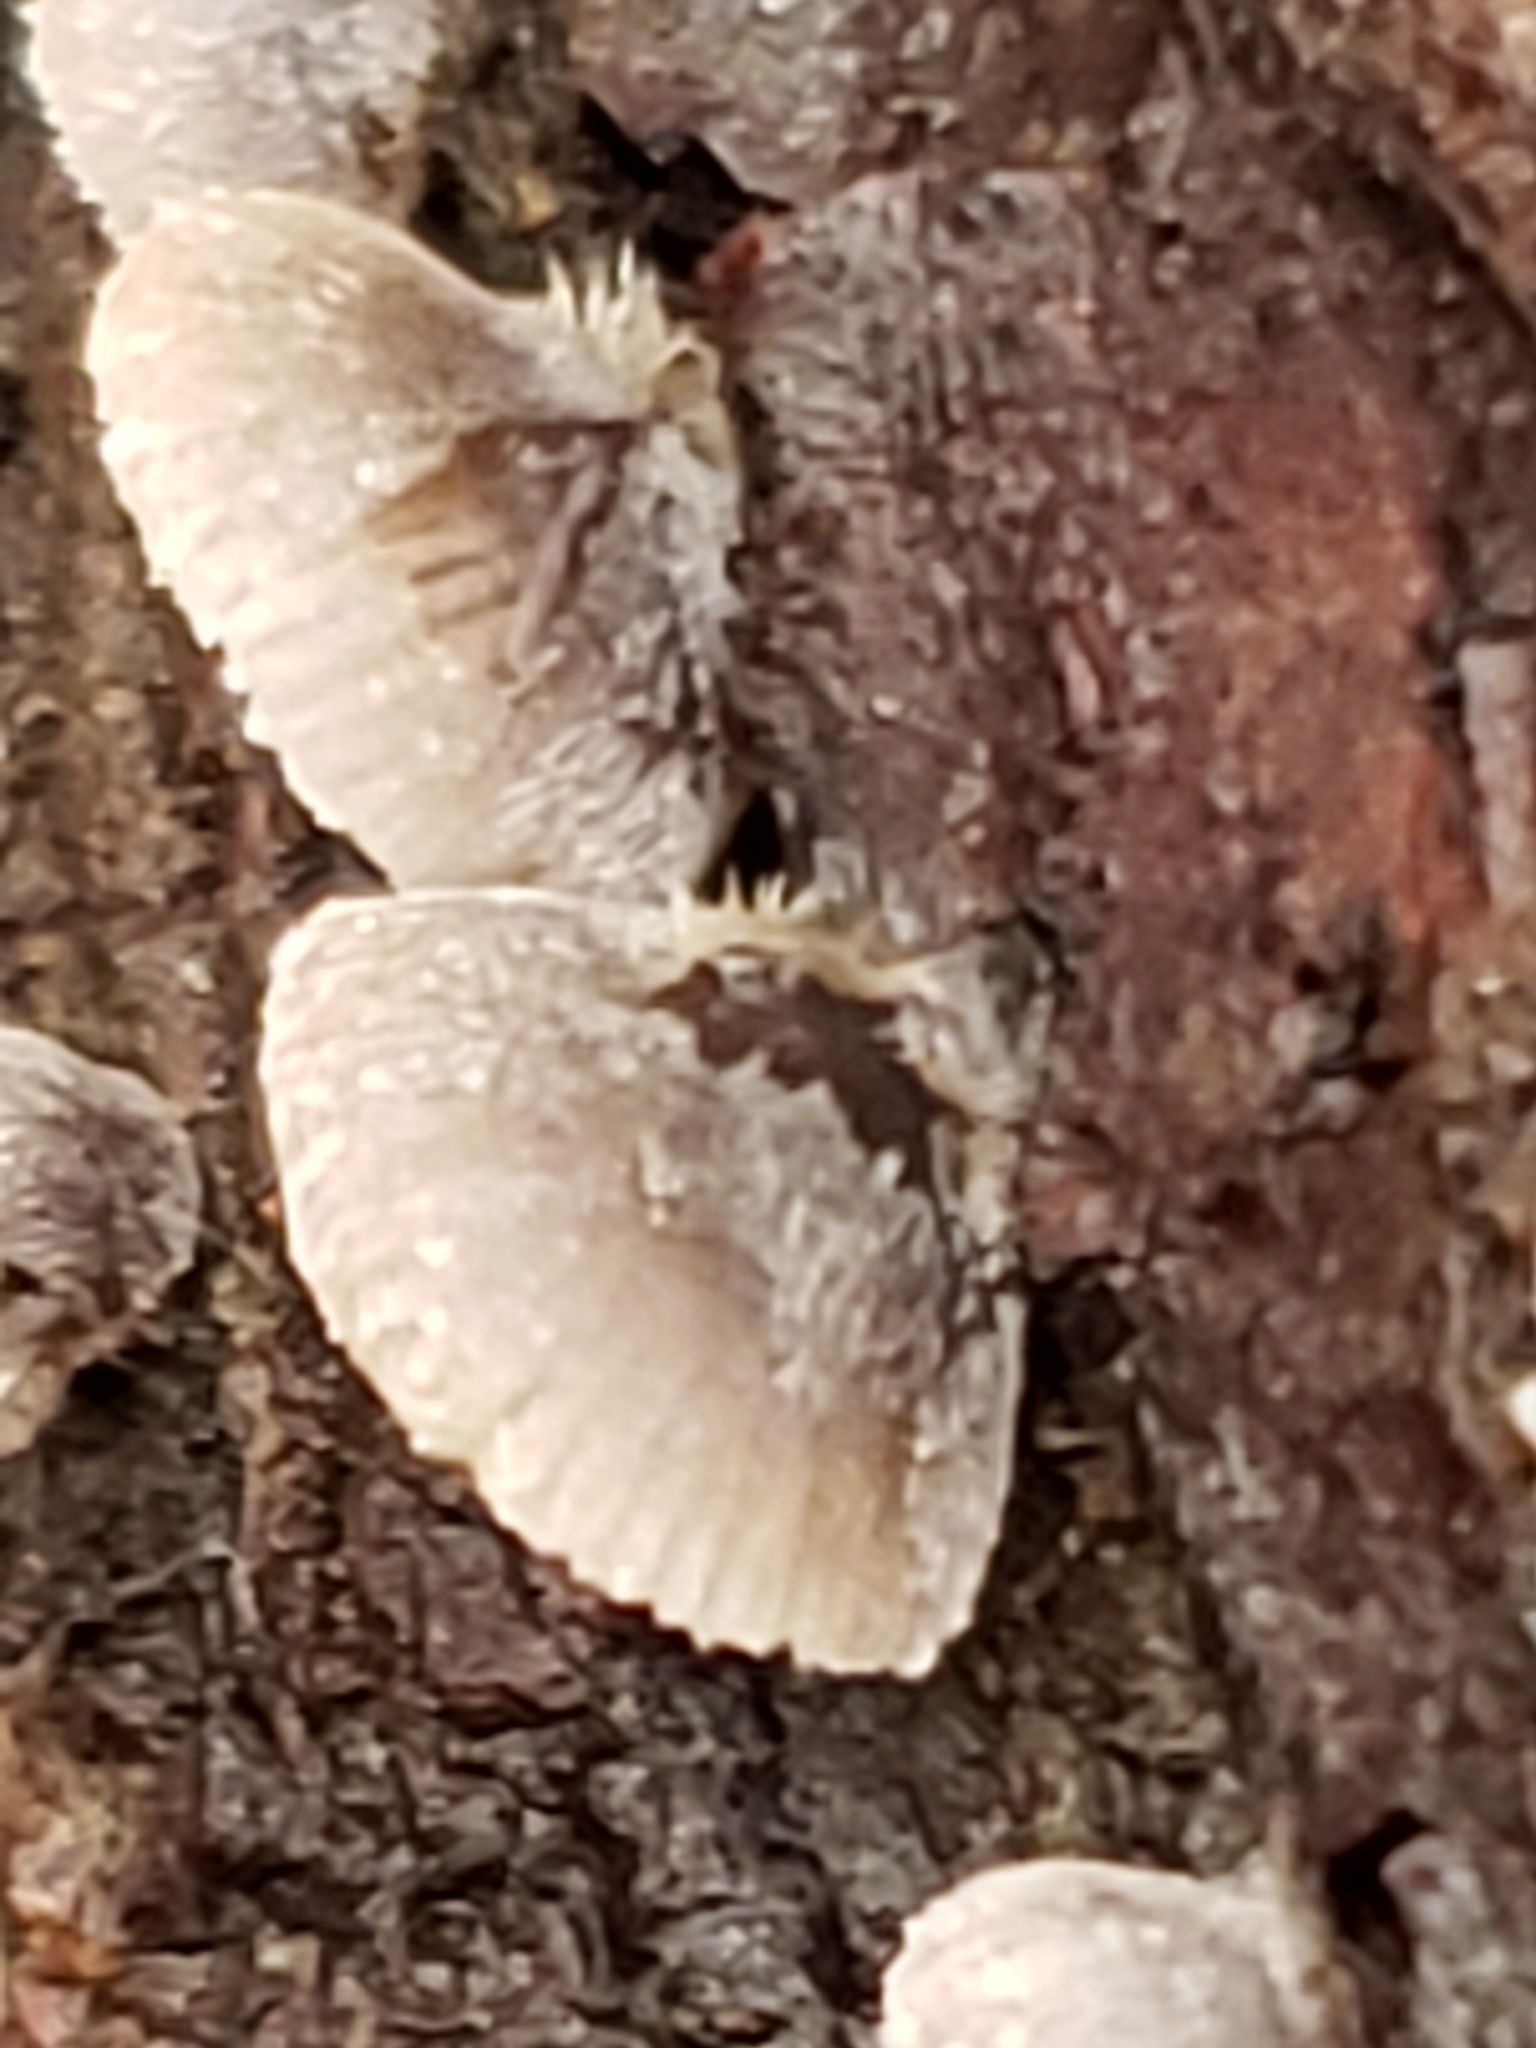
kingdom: Fungi
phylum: Basidiomycota
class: Agaricomycetes
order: Agaricales
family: Pleurotaceae
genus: Resupinatus
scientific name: Resupinatus applicatus
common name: Smoked oysterling
